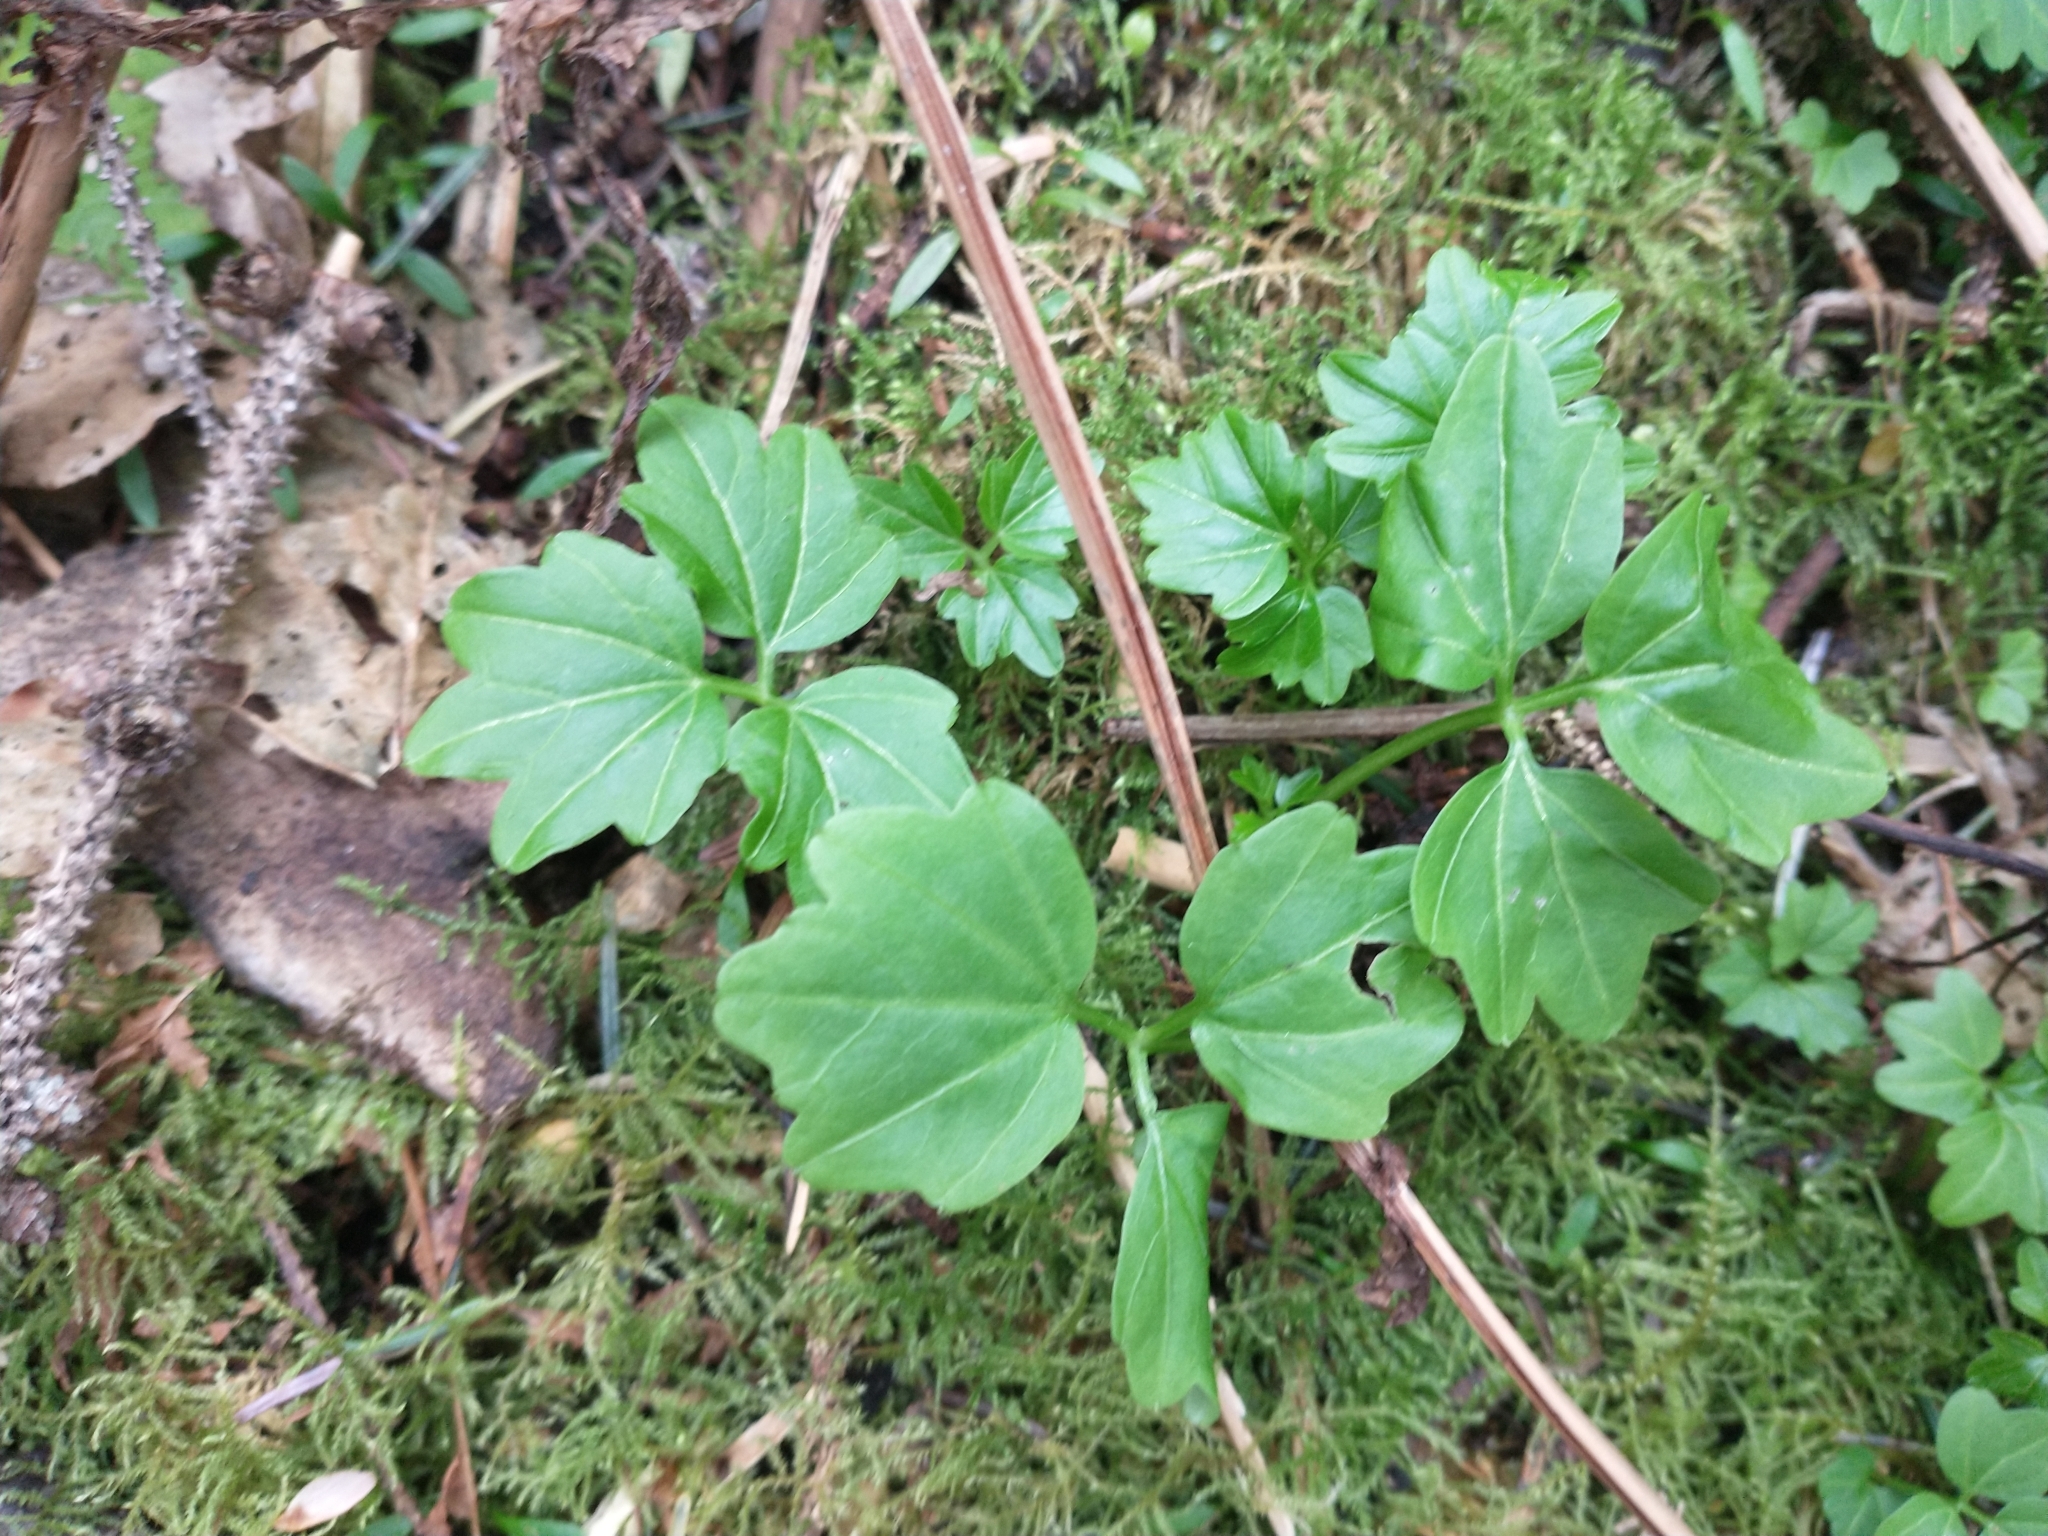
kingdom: Plantae
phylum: Tracheophyta
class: Magnoliopsida
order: Brassicales
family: Brassicaceae
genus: Cardamine
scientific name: Cardamine angulata
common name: Angled bittercress
